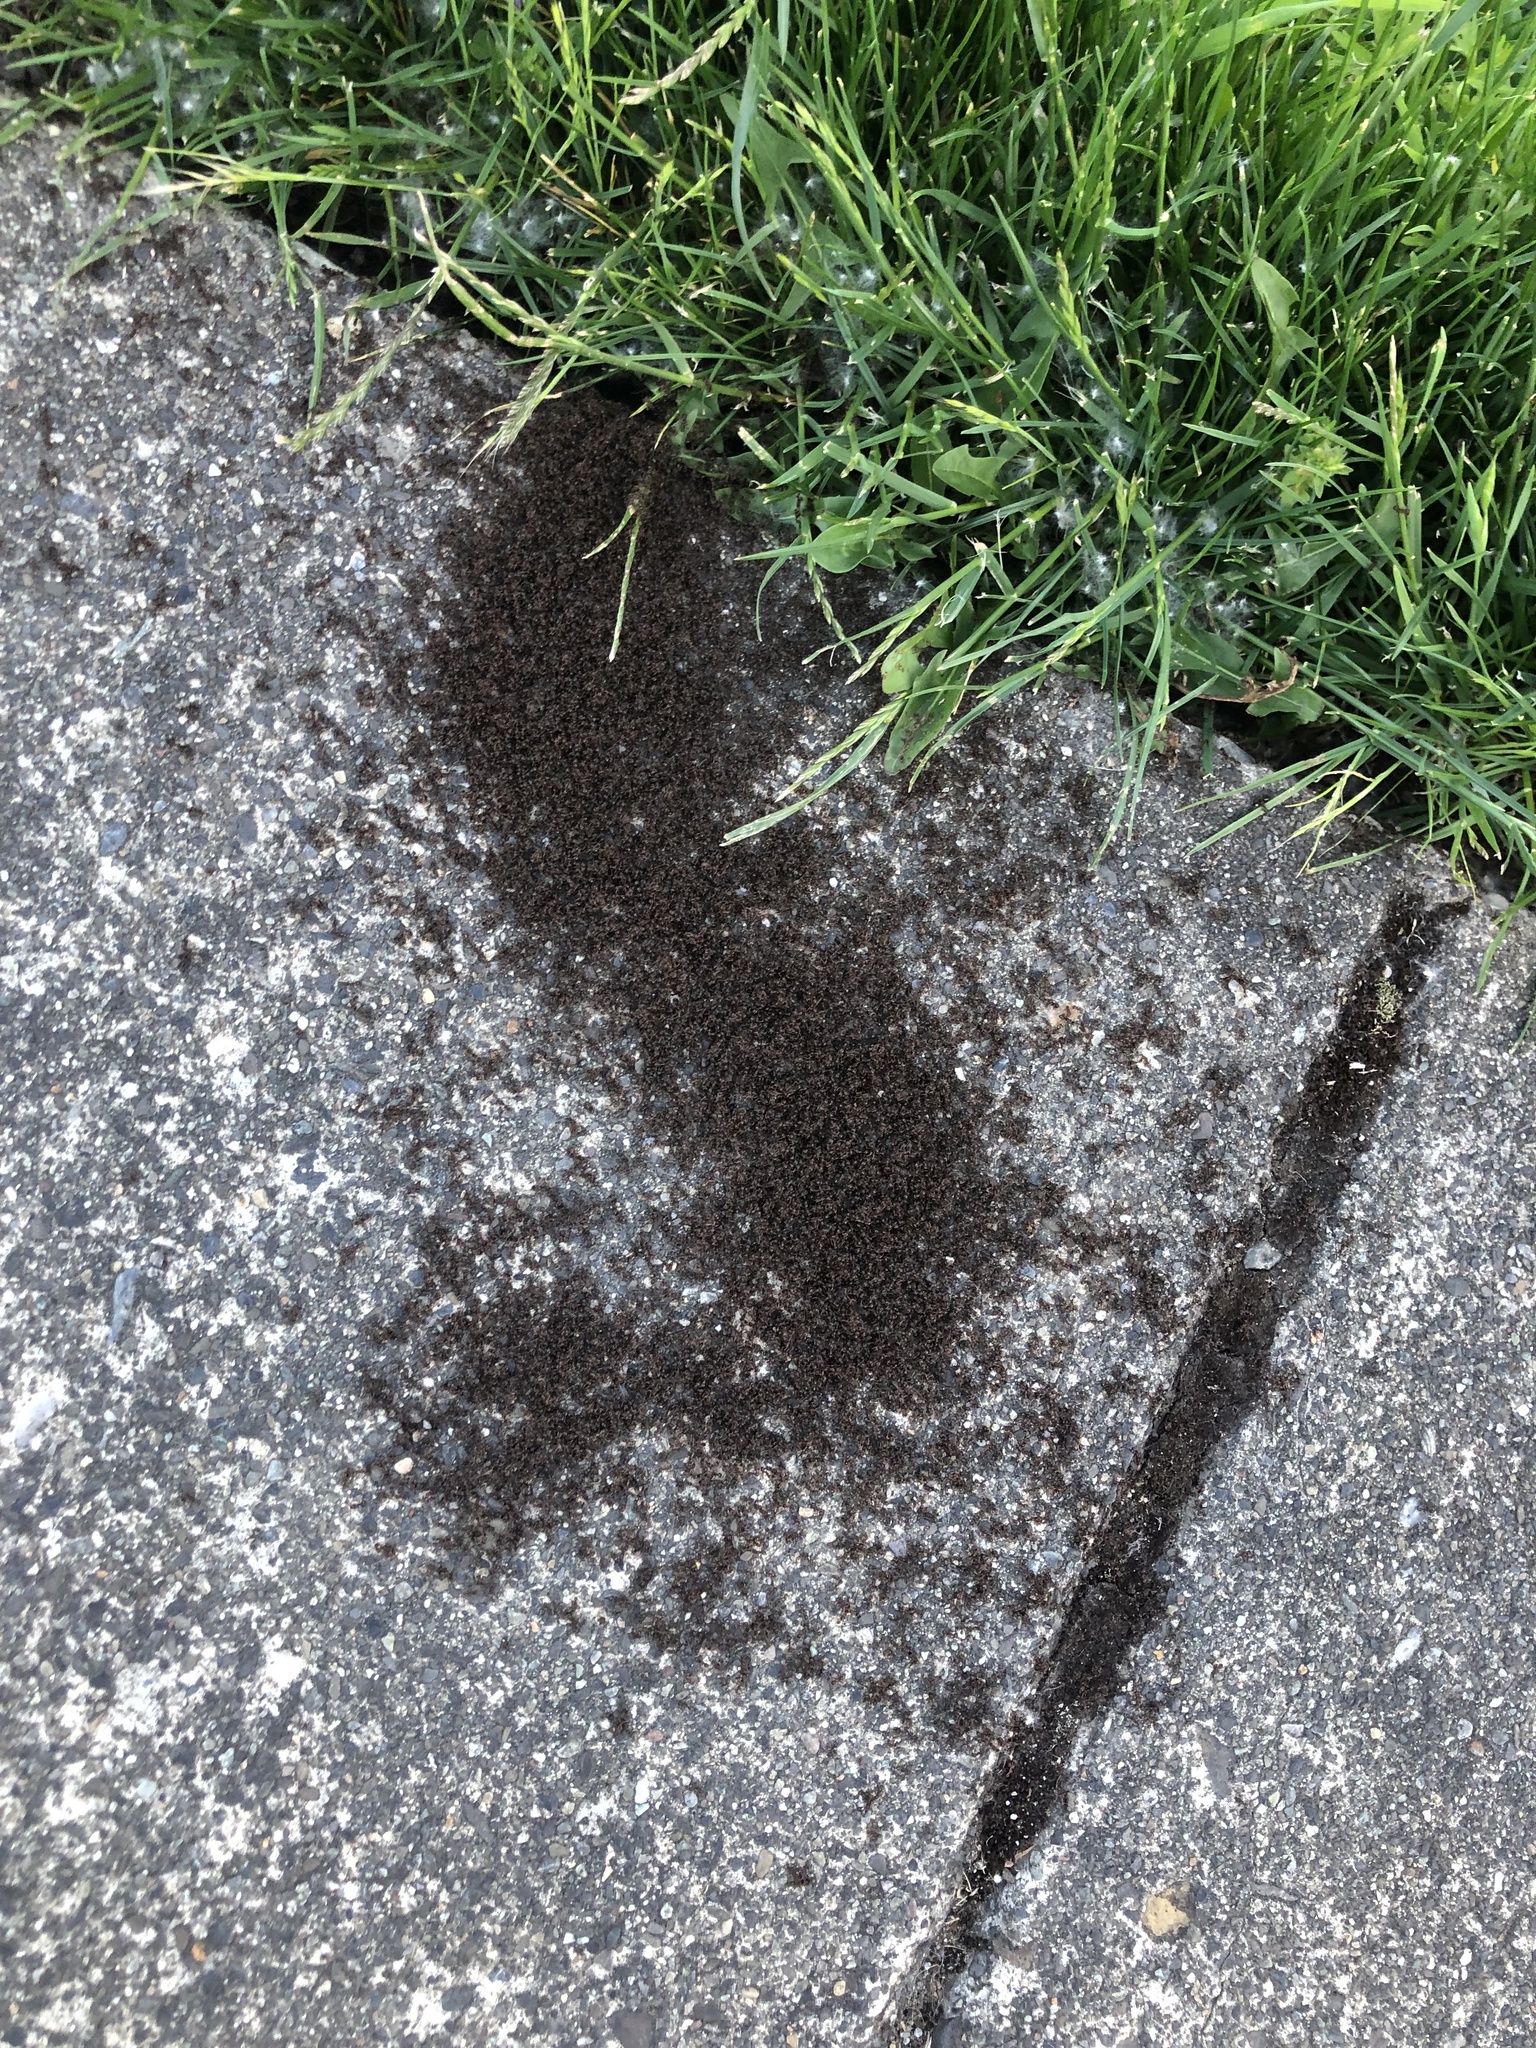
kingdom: Animalia
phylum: Arthropoda
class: Insecta
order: Hymenoptera
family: Formicidae
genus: Tetramorium
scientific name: Tetramorium immigrans
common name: Pavement ant
